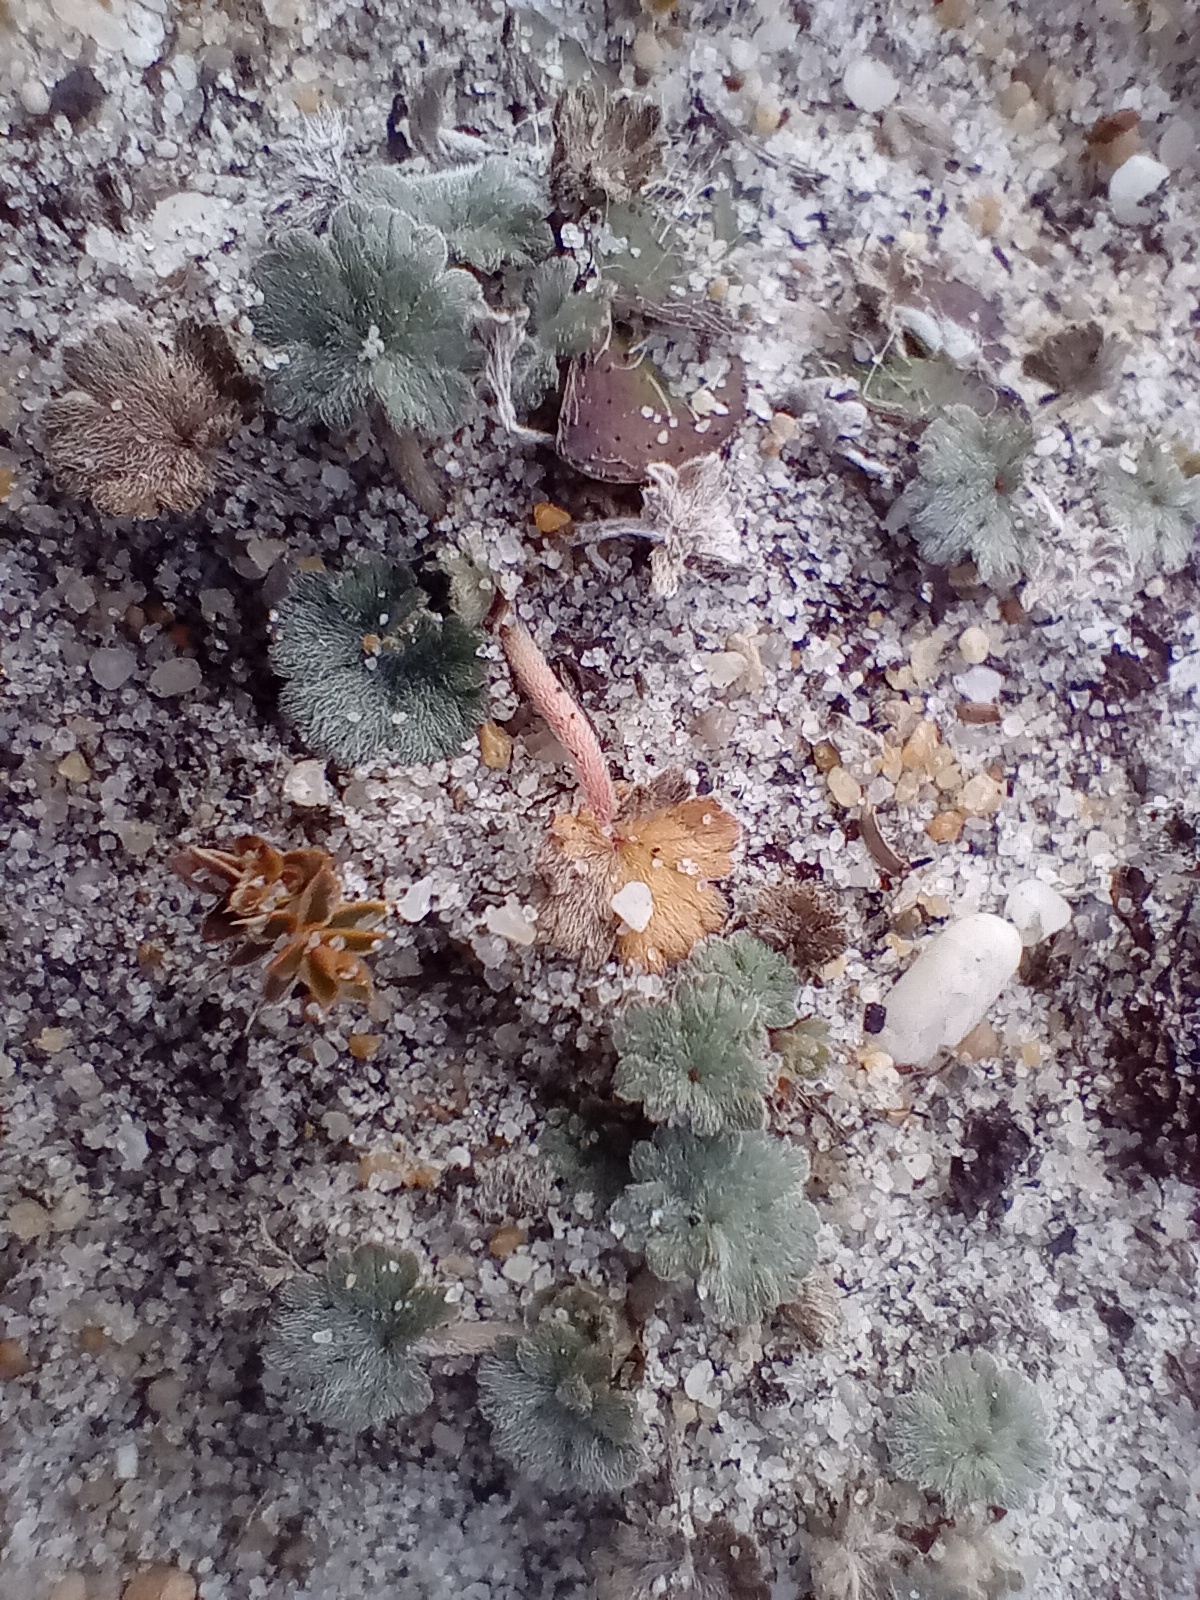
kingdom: Plantae
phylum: Tracheophyta
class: Magnoliopsida
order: Geraniales
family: Geraniaceae
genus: Geranium
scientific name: Geranium brevicaule
